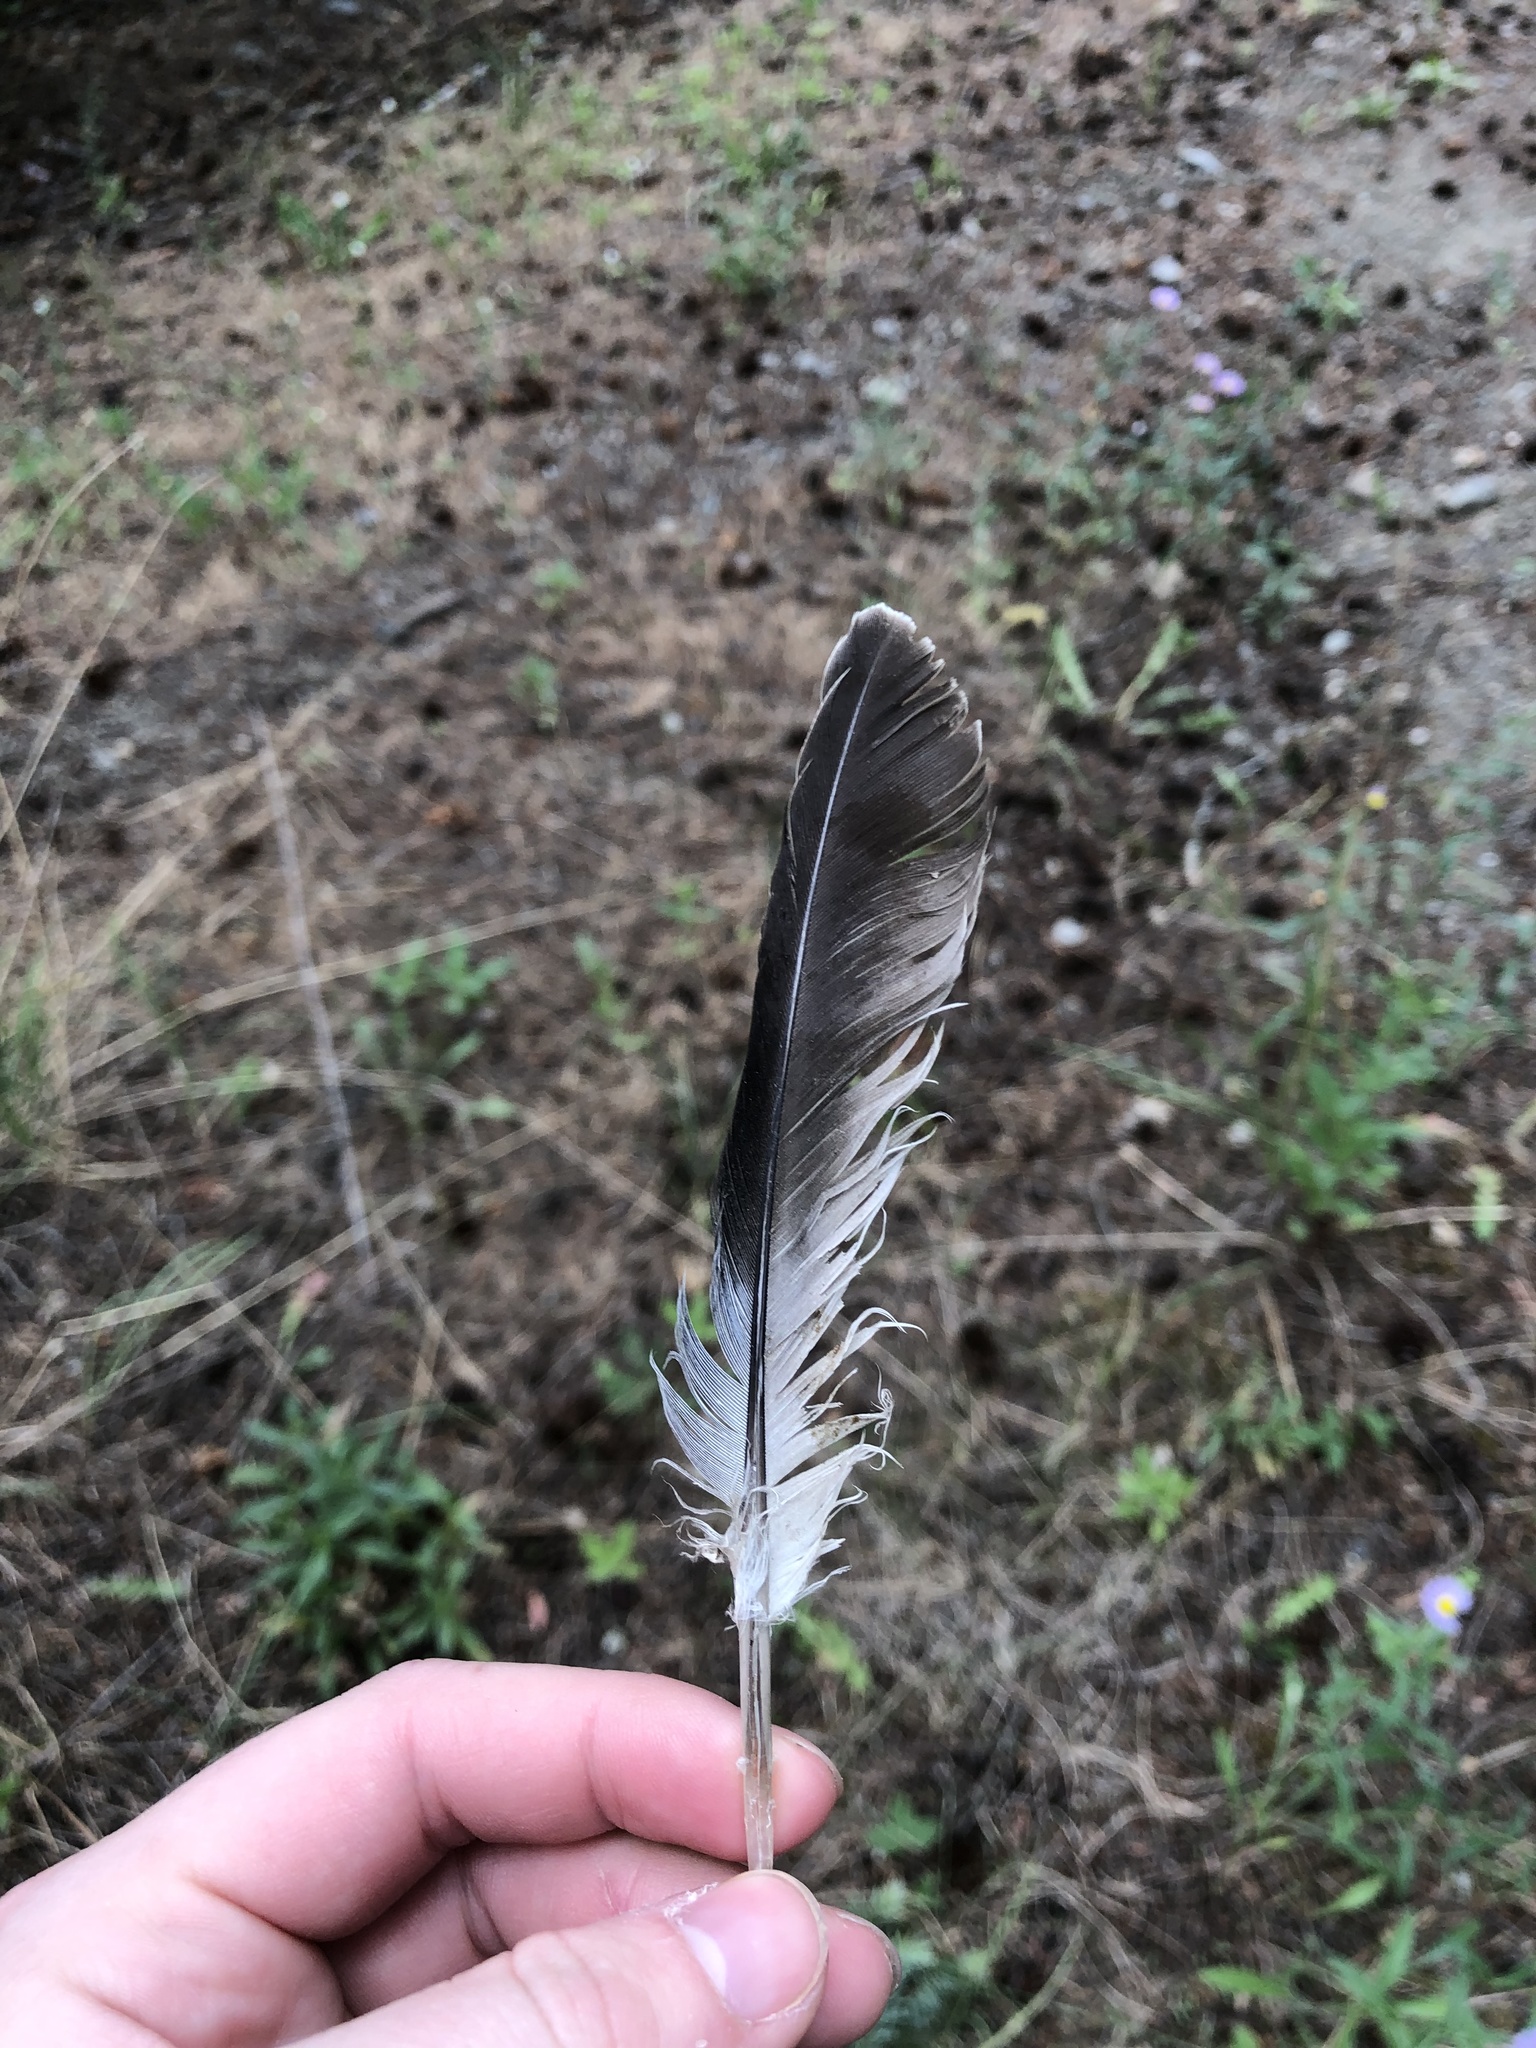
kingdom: Animalia
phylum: Chordata
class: Aves
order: Columbiformes
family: Columbidae
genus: Streptopelia
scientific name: Streptopelia decaocto
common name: Eurasian collared dove
